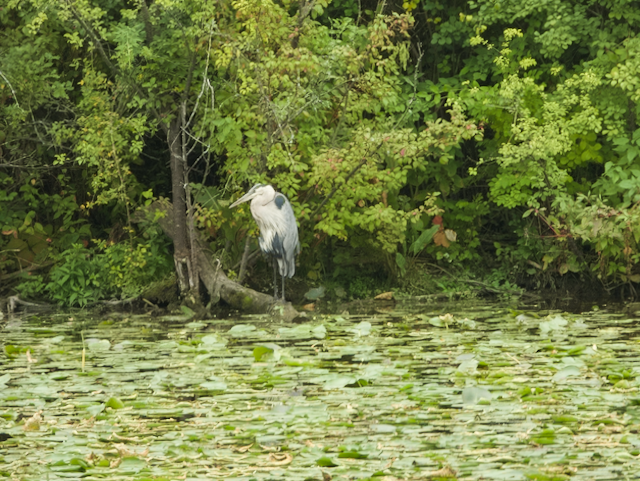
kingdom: Animalia
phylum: Chordata
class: Aves
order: Pelecaniformes
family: Ardeidae
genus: Ardea
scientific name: Ardea herodias
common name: Great blue heron
